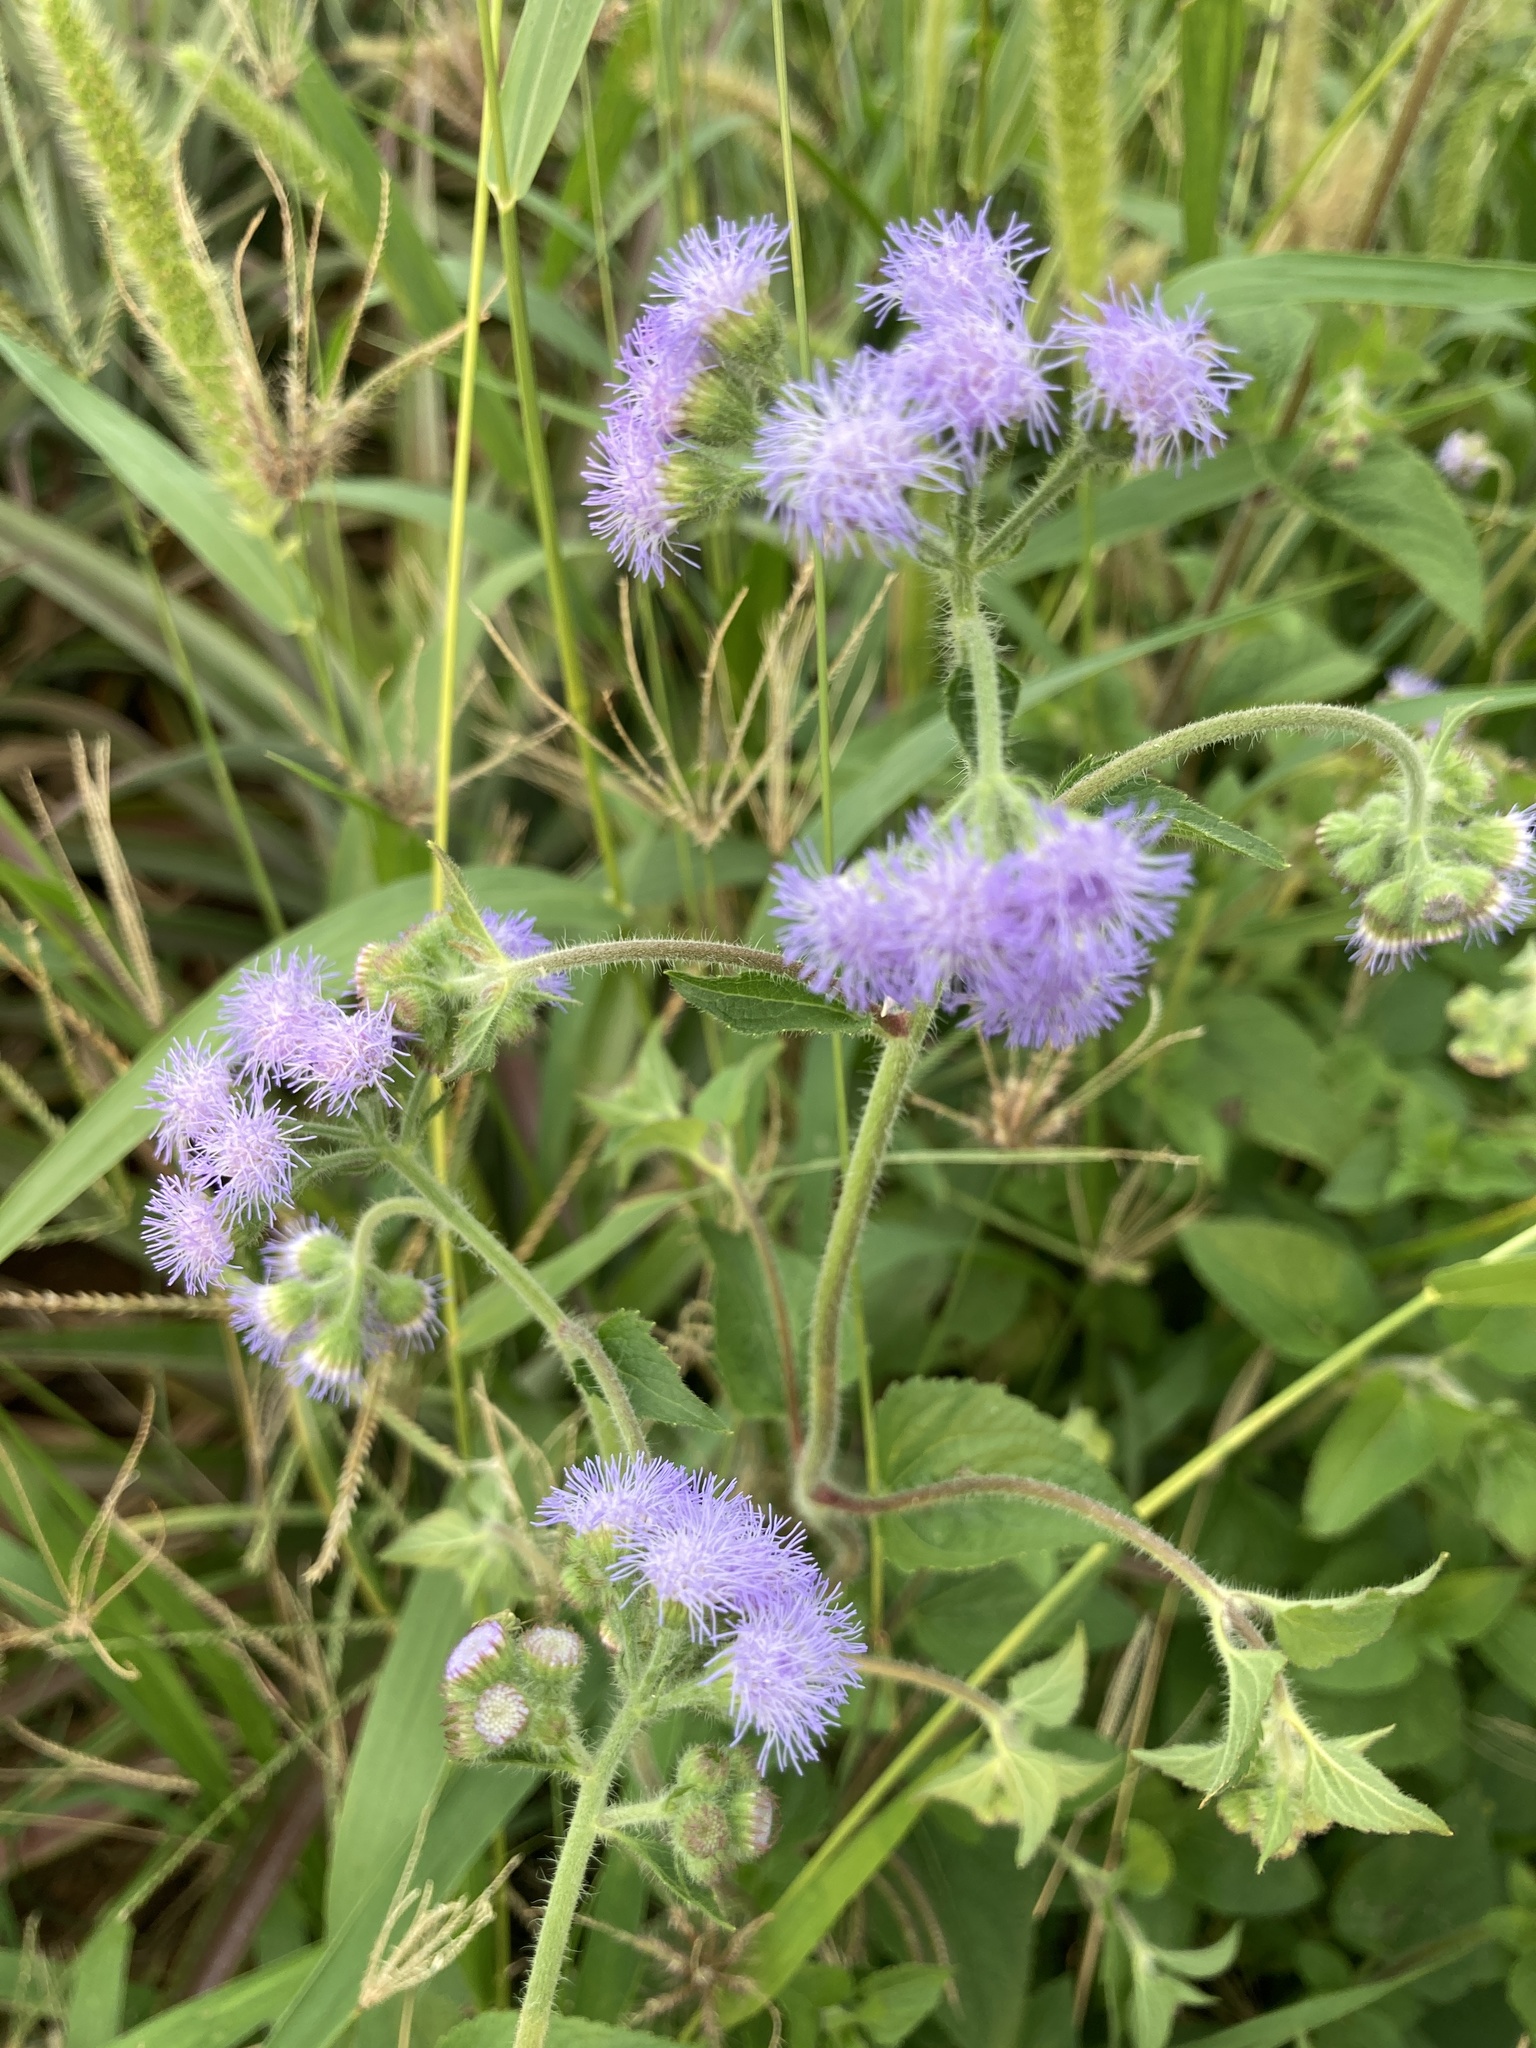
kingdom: Plantae
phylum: Tracheophyta
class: Magnoliopsida
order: Asterales
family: Asteraceae
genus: Ageratum
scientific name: Ageratum houstonianum
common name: Bluemink
